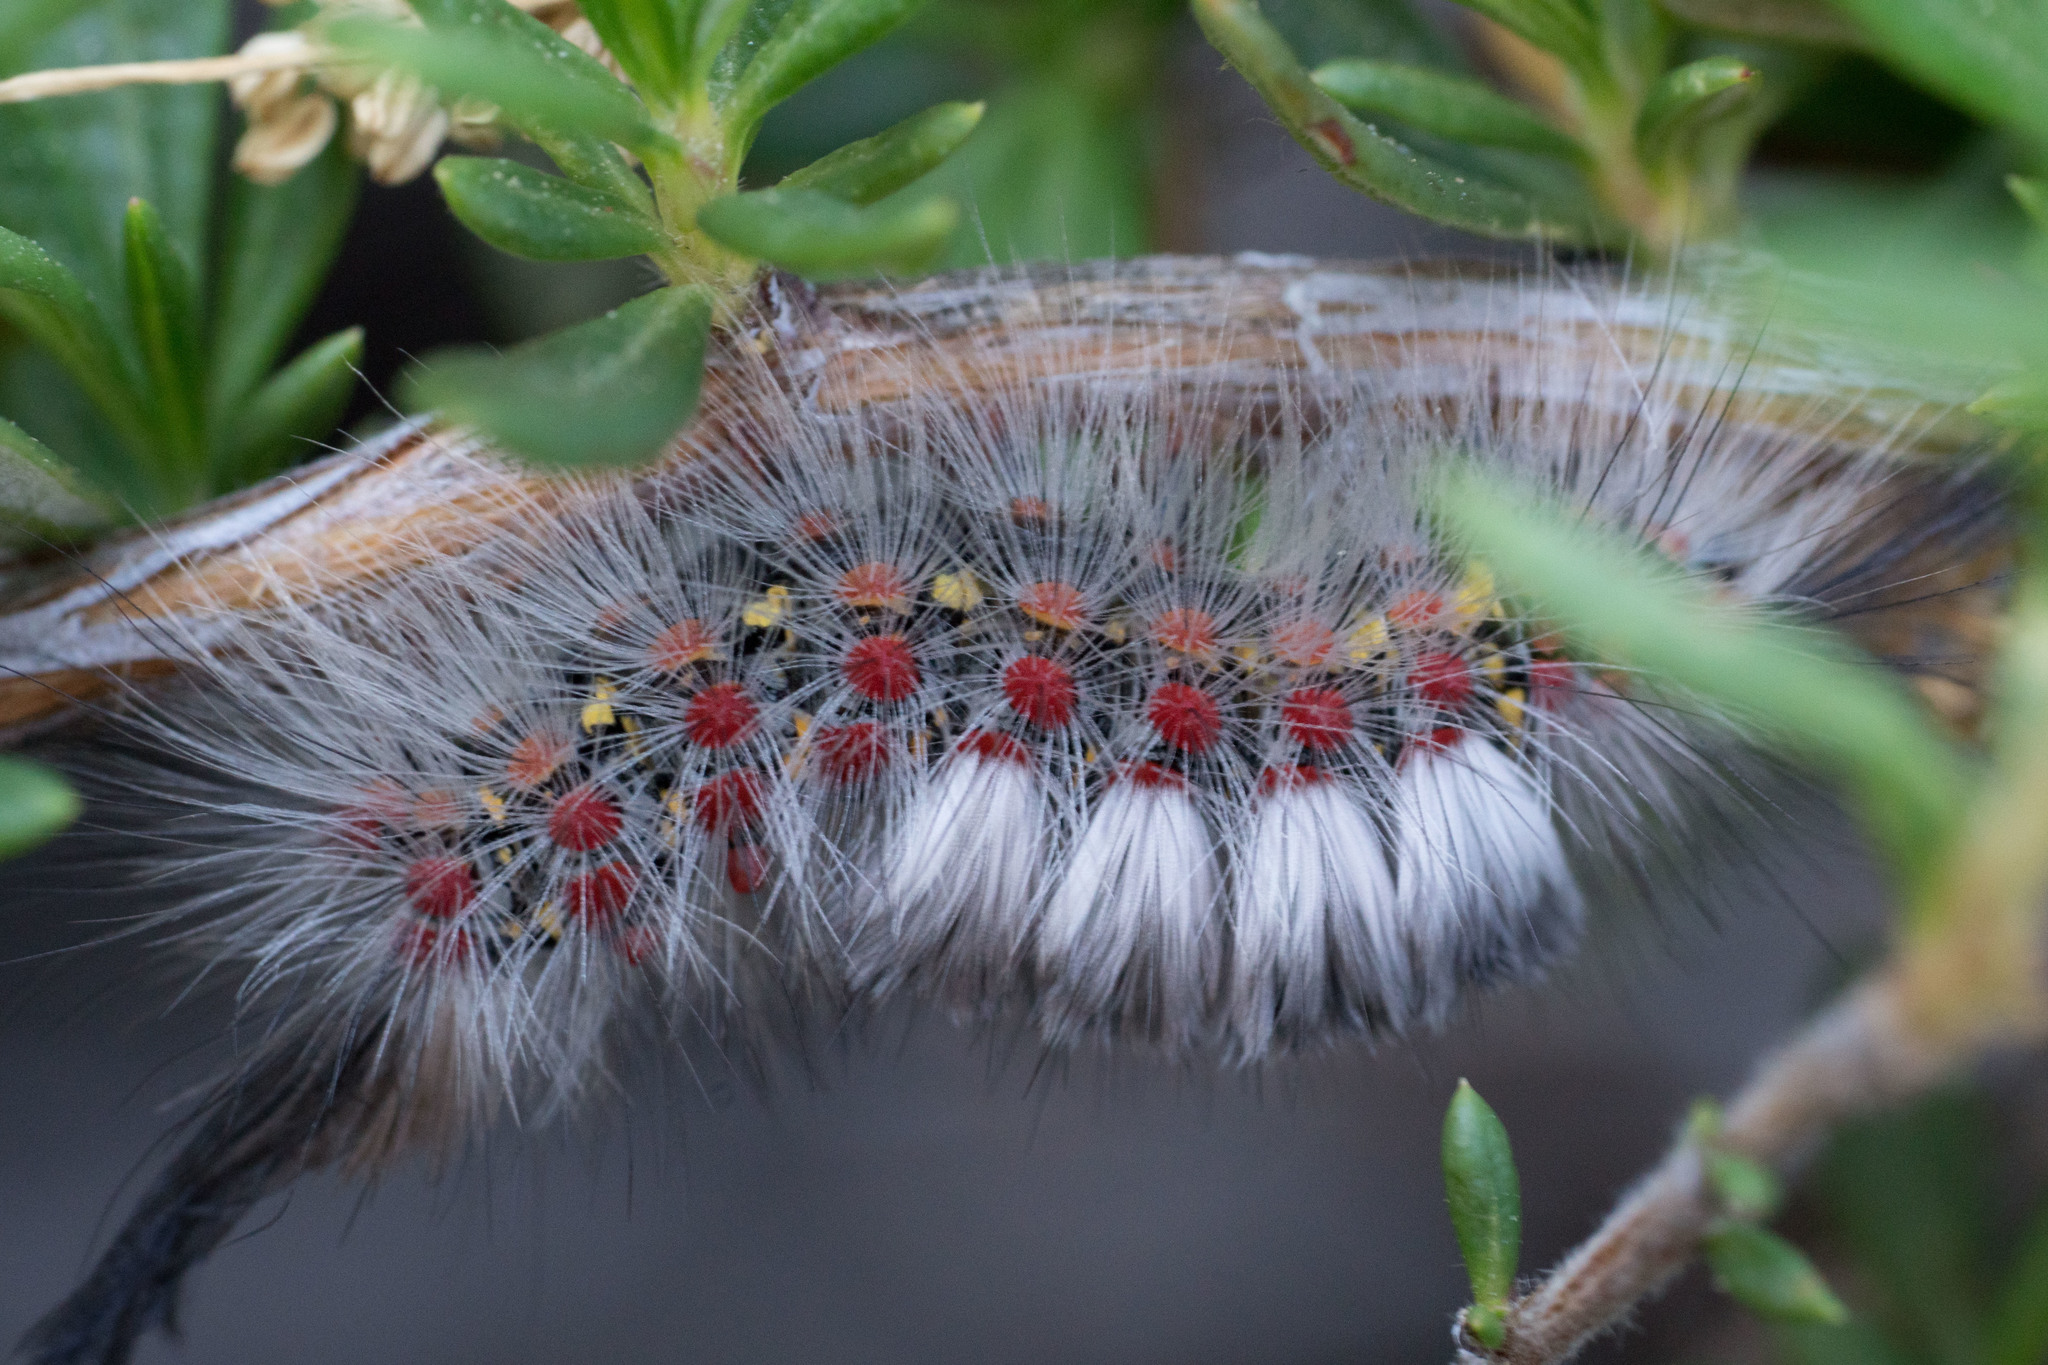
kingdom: Animalia
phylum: Arthropoda
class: Insecta
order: Lepidoptera
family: Erebidae
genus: Orgyia
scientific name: Orgyia vetusta
